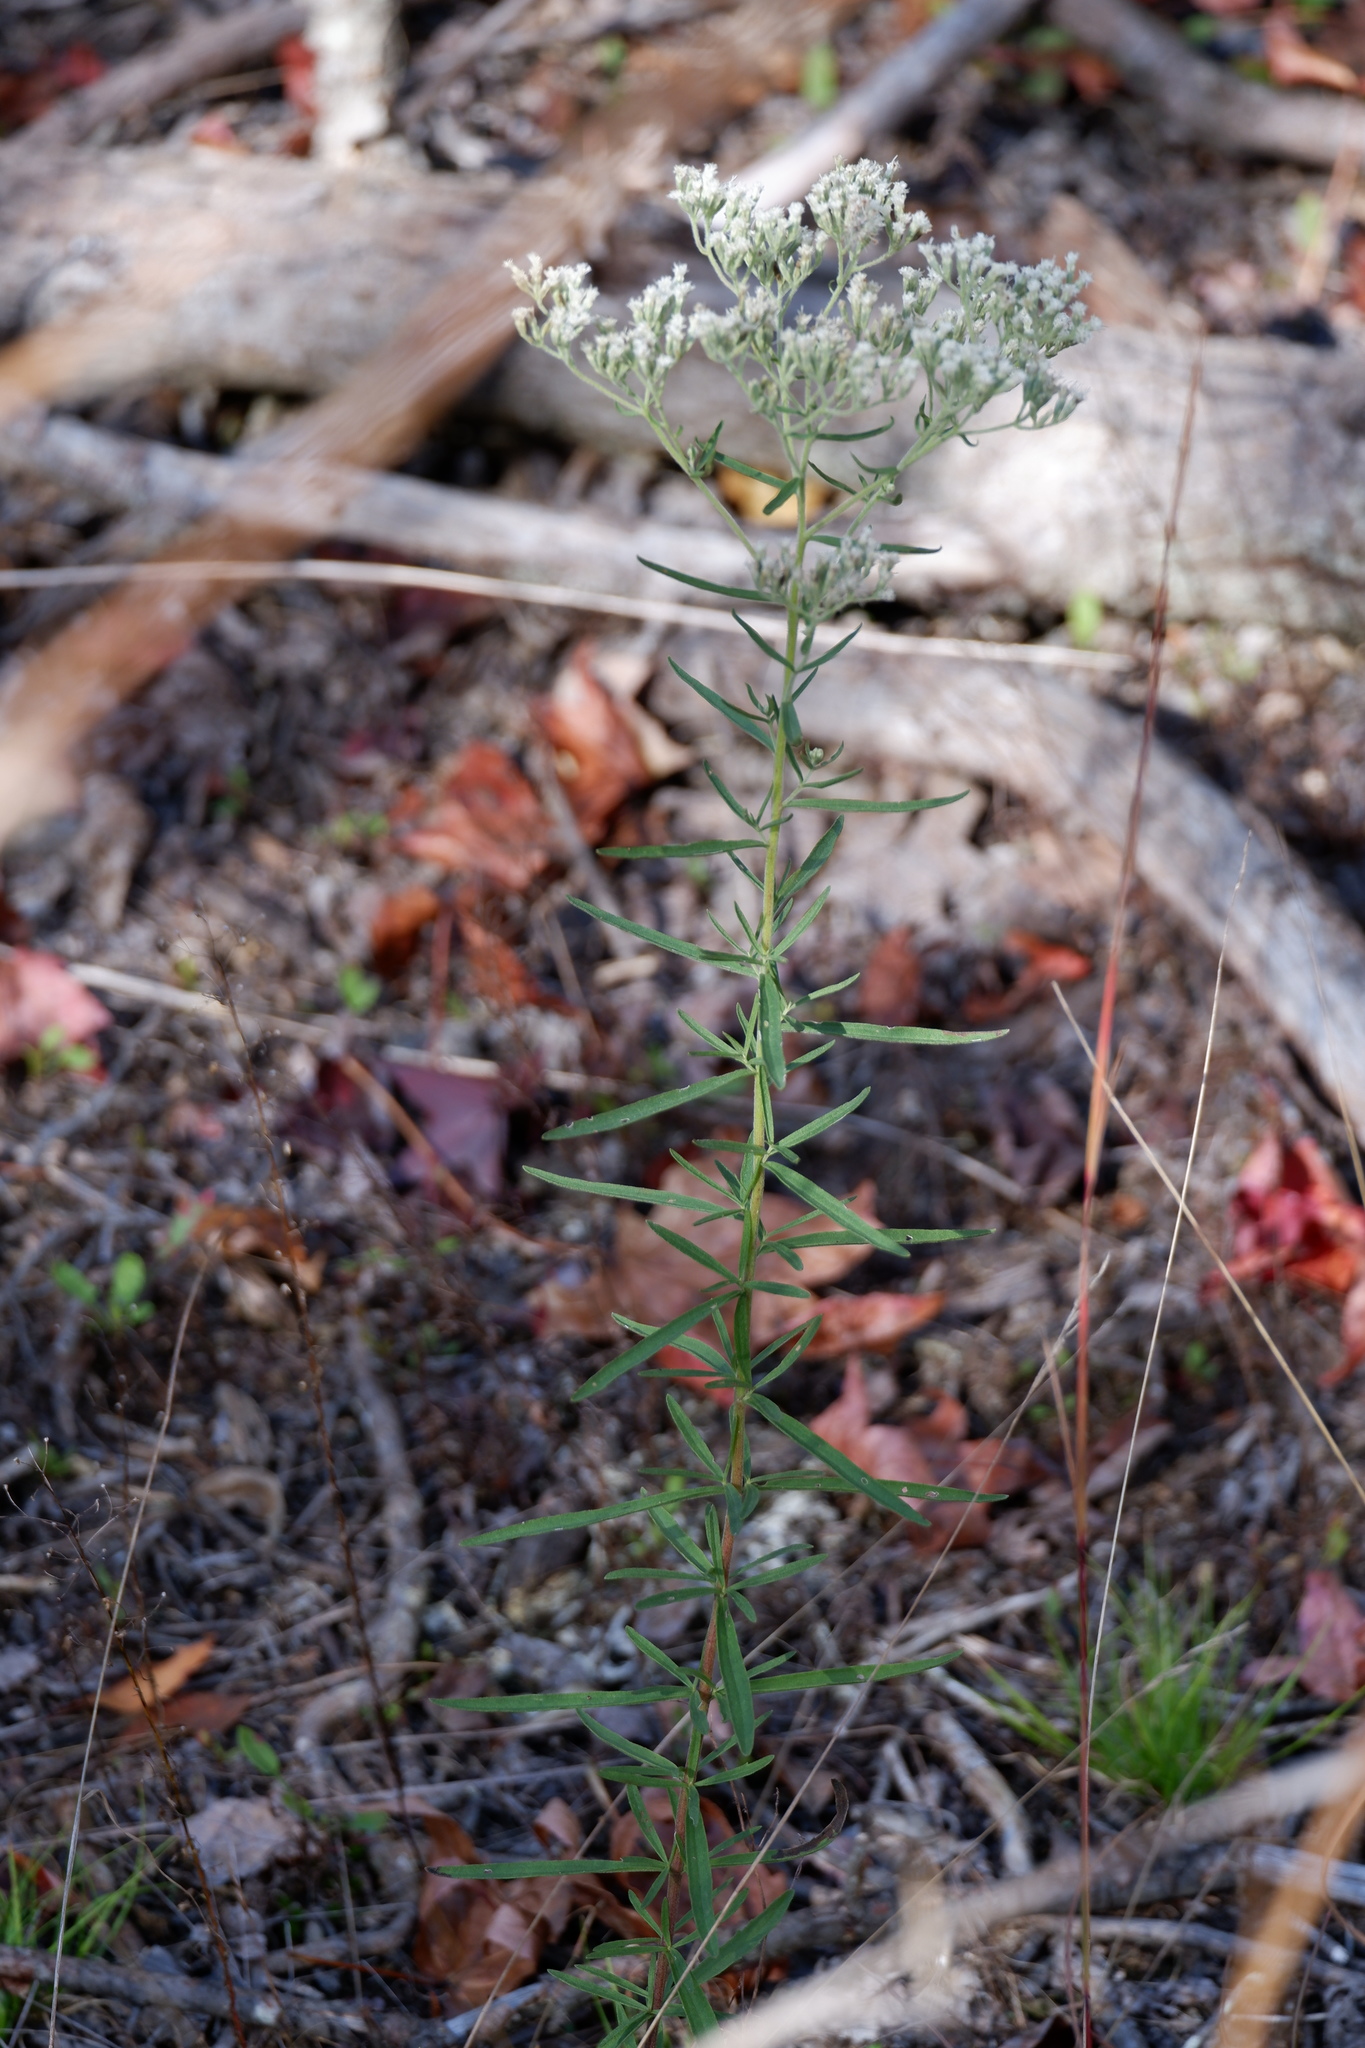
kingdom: Plantae
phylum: Tracheophyta
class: Magnoliopsida
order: Asterales
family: Asteraceae
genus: Eupatorium
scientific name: Eupatorium torreyanum
